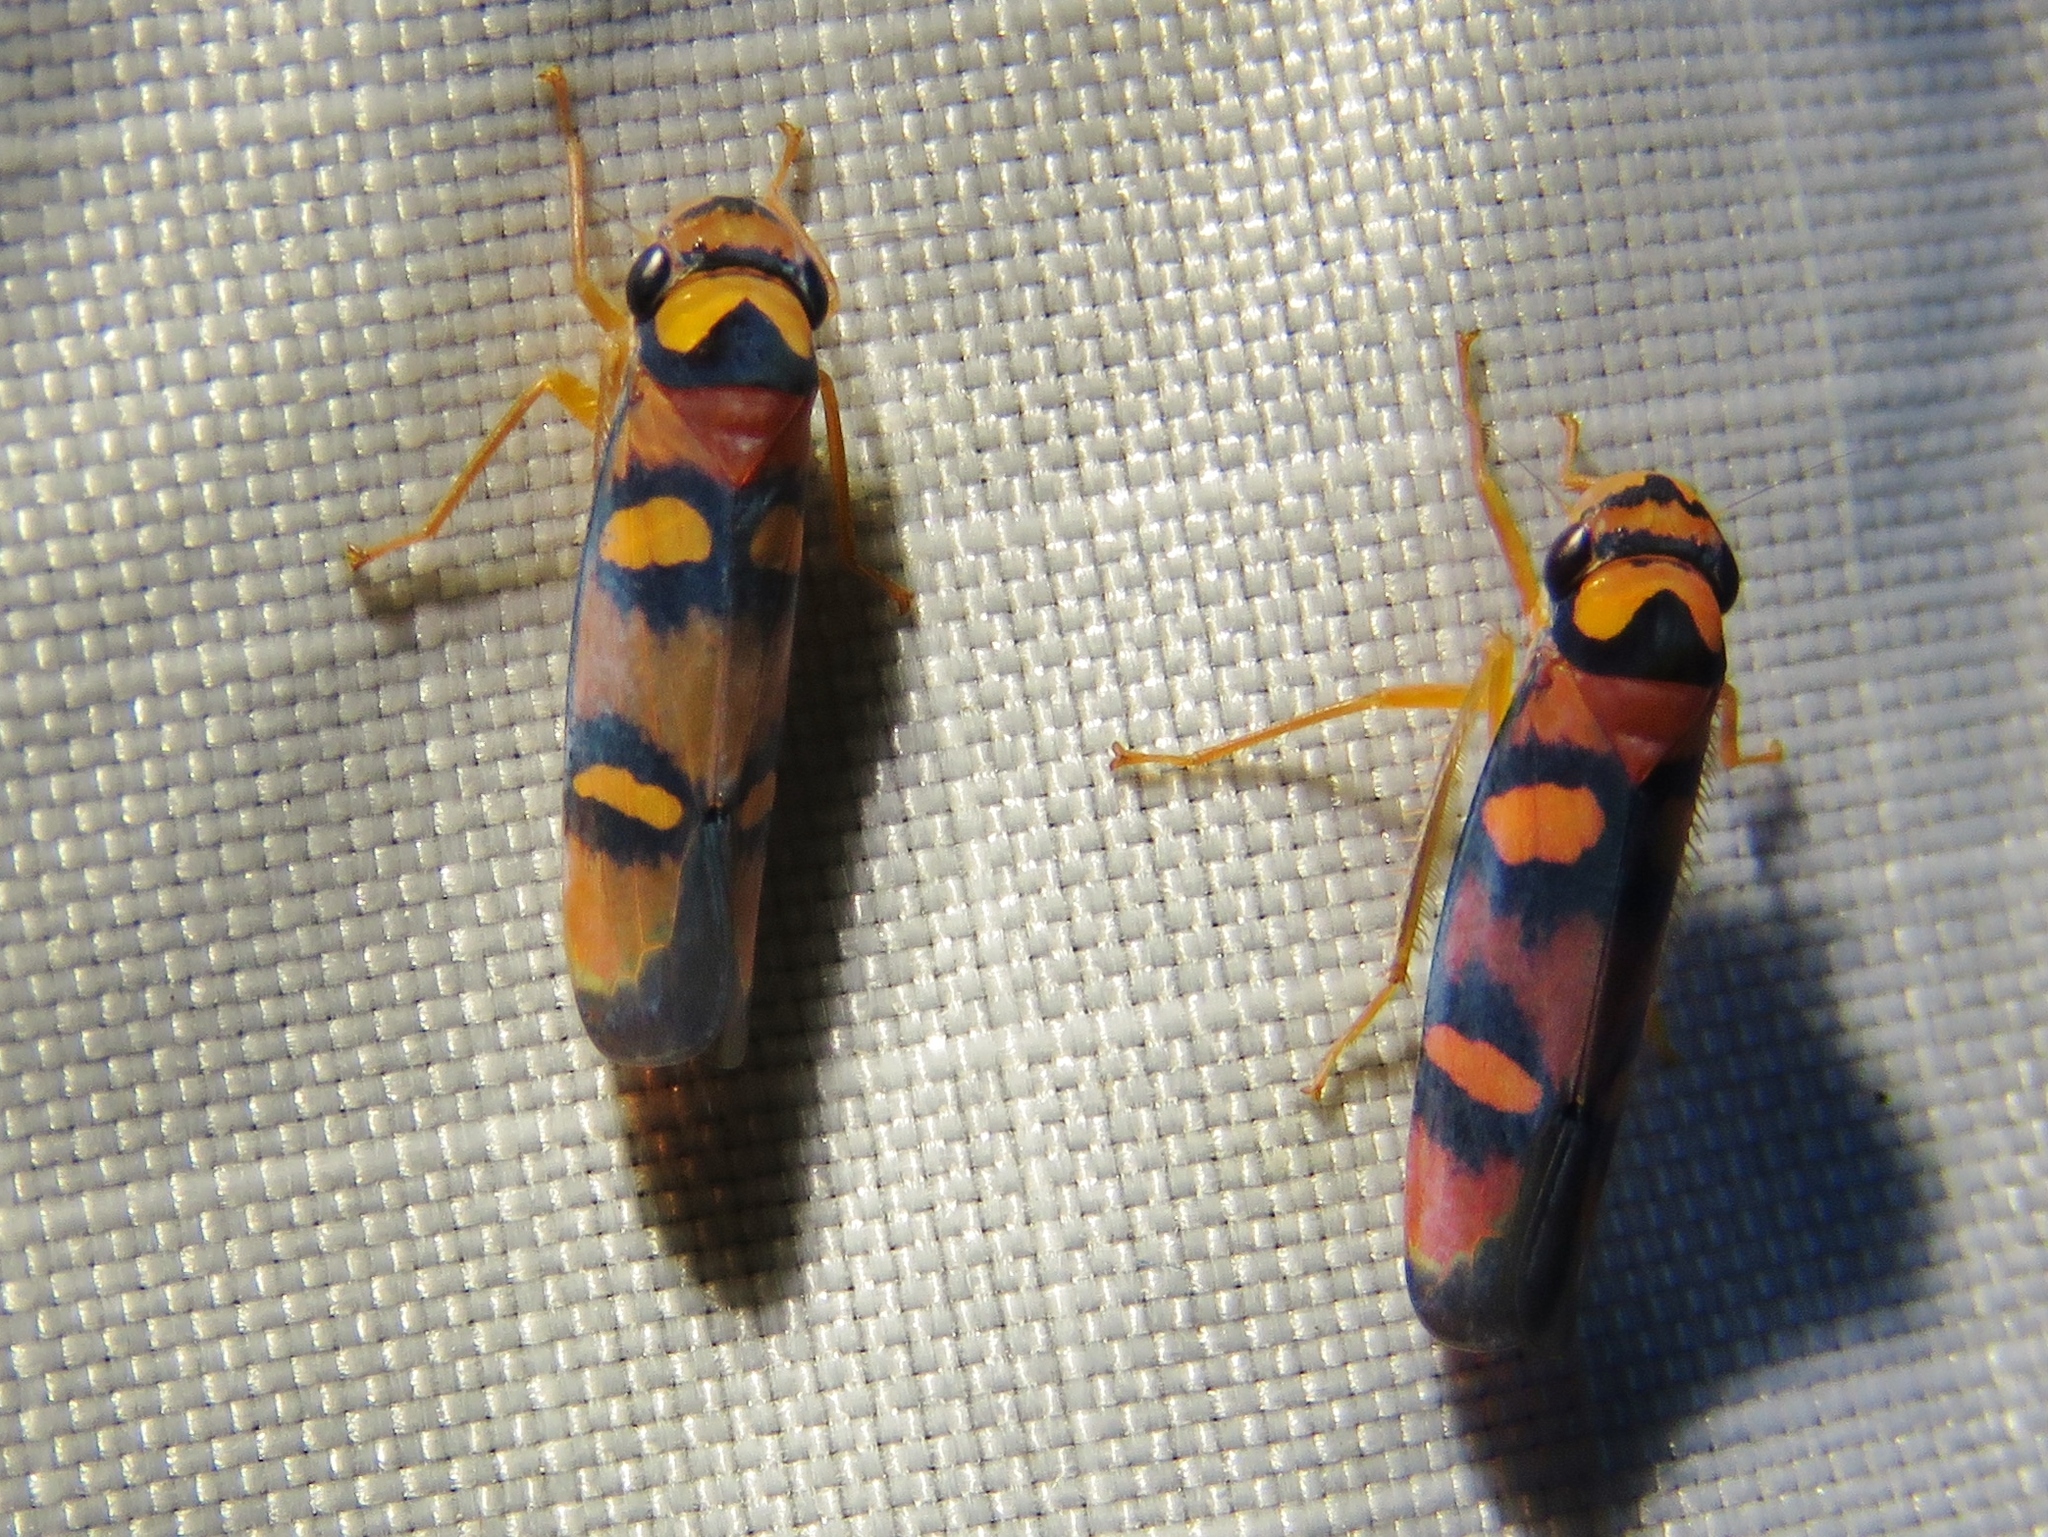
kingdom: Animalia
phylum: Arthropoda
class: Insecta
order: Hemiptera
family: Cicadellidae
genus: Pawiloma
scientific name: Pawiloma jucunda
